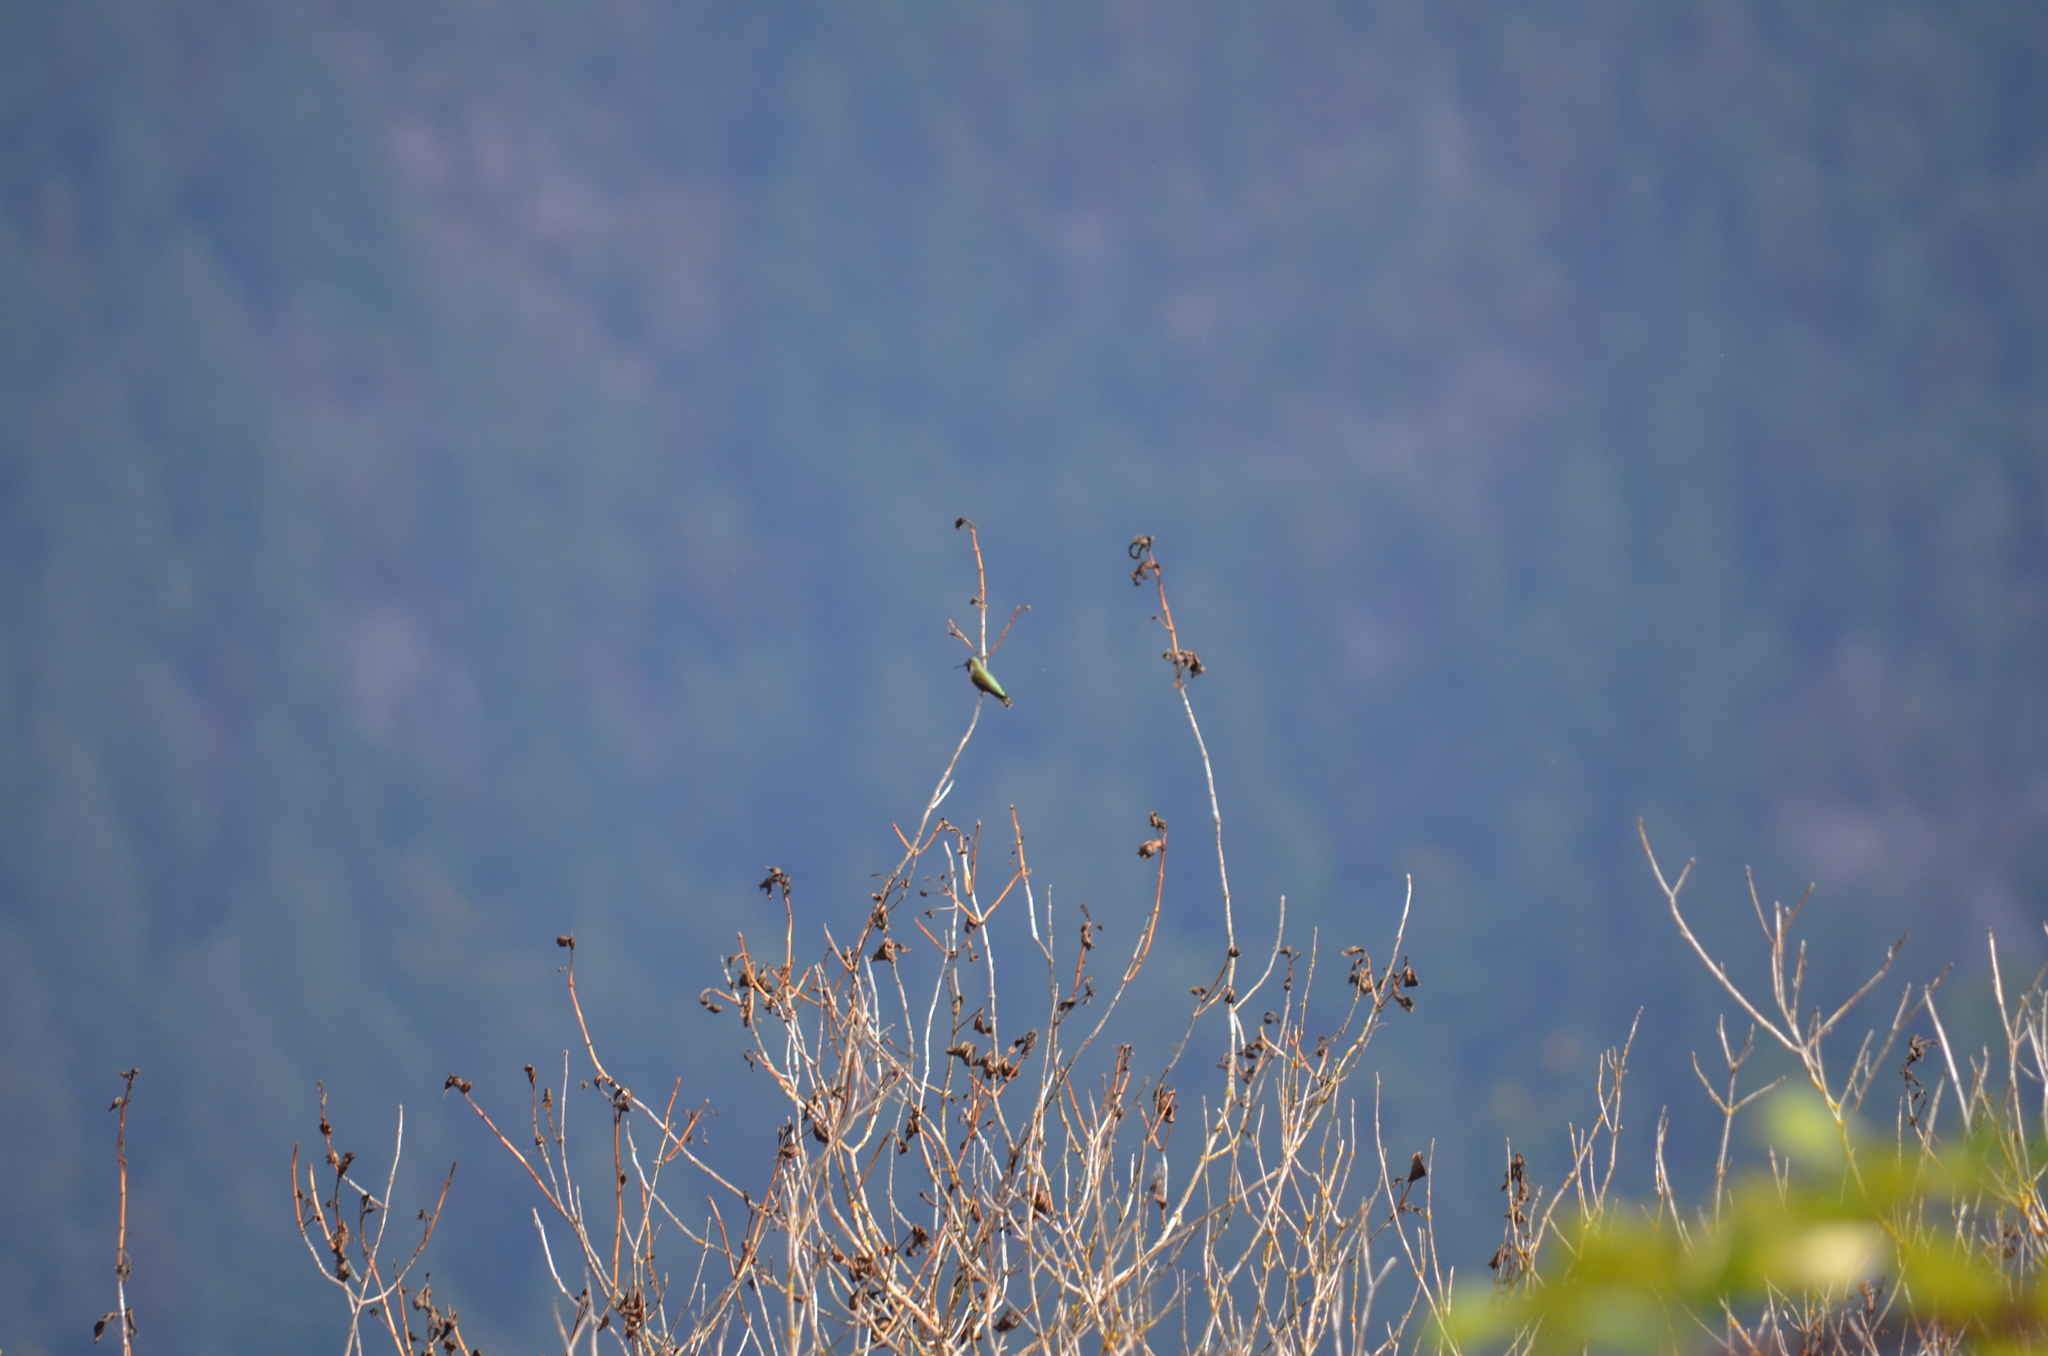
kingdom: Animalia
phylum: Chordata
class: Aves
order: Apodiformes
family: Trochilidae
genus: Calypte
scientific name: Calypte anna
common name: Anna's hummingbird
